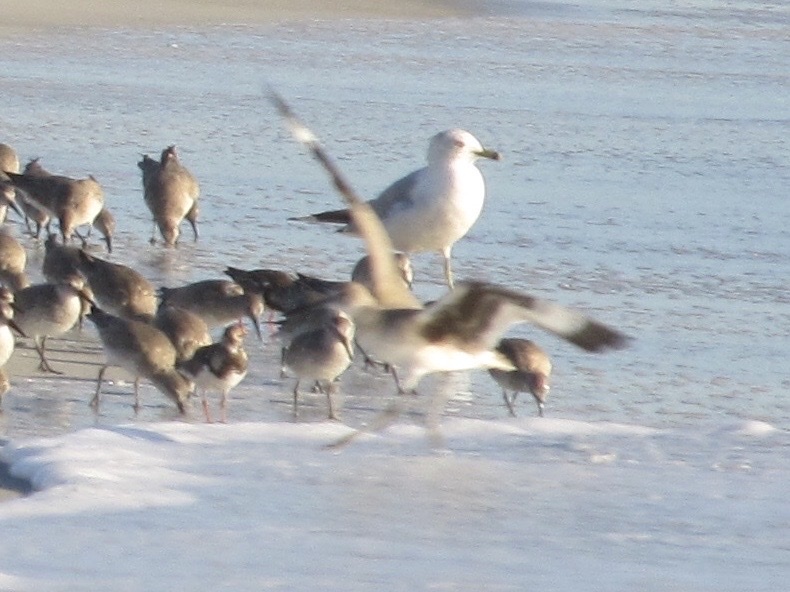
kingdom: Animalia
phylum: Chordata
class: Aves
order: Charadriiformes
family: Scolopacidae
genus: Tringa
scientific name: Tringa semipalmata
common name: Willet
